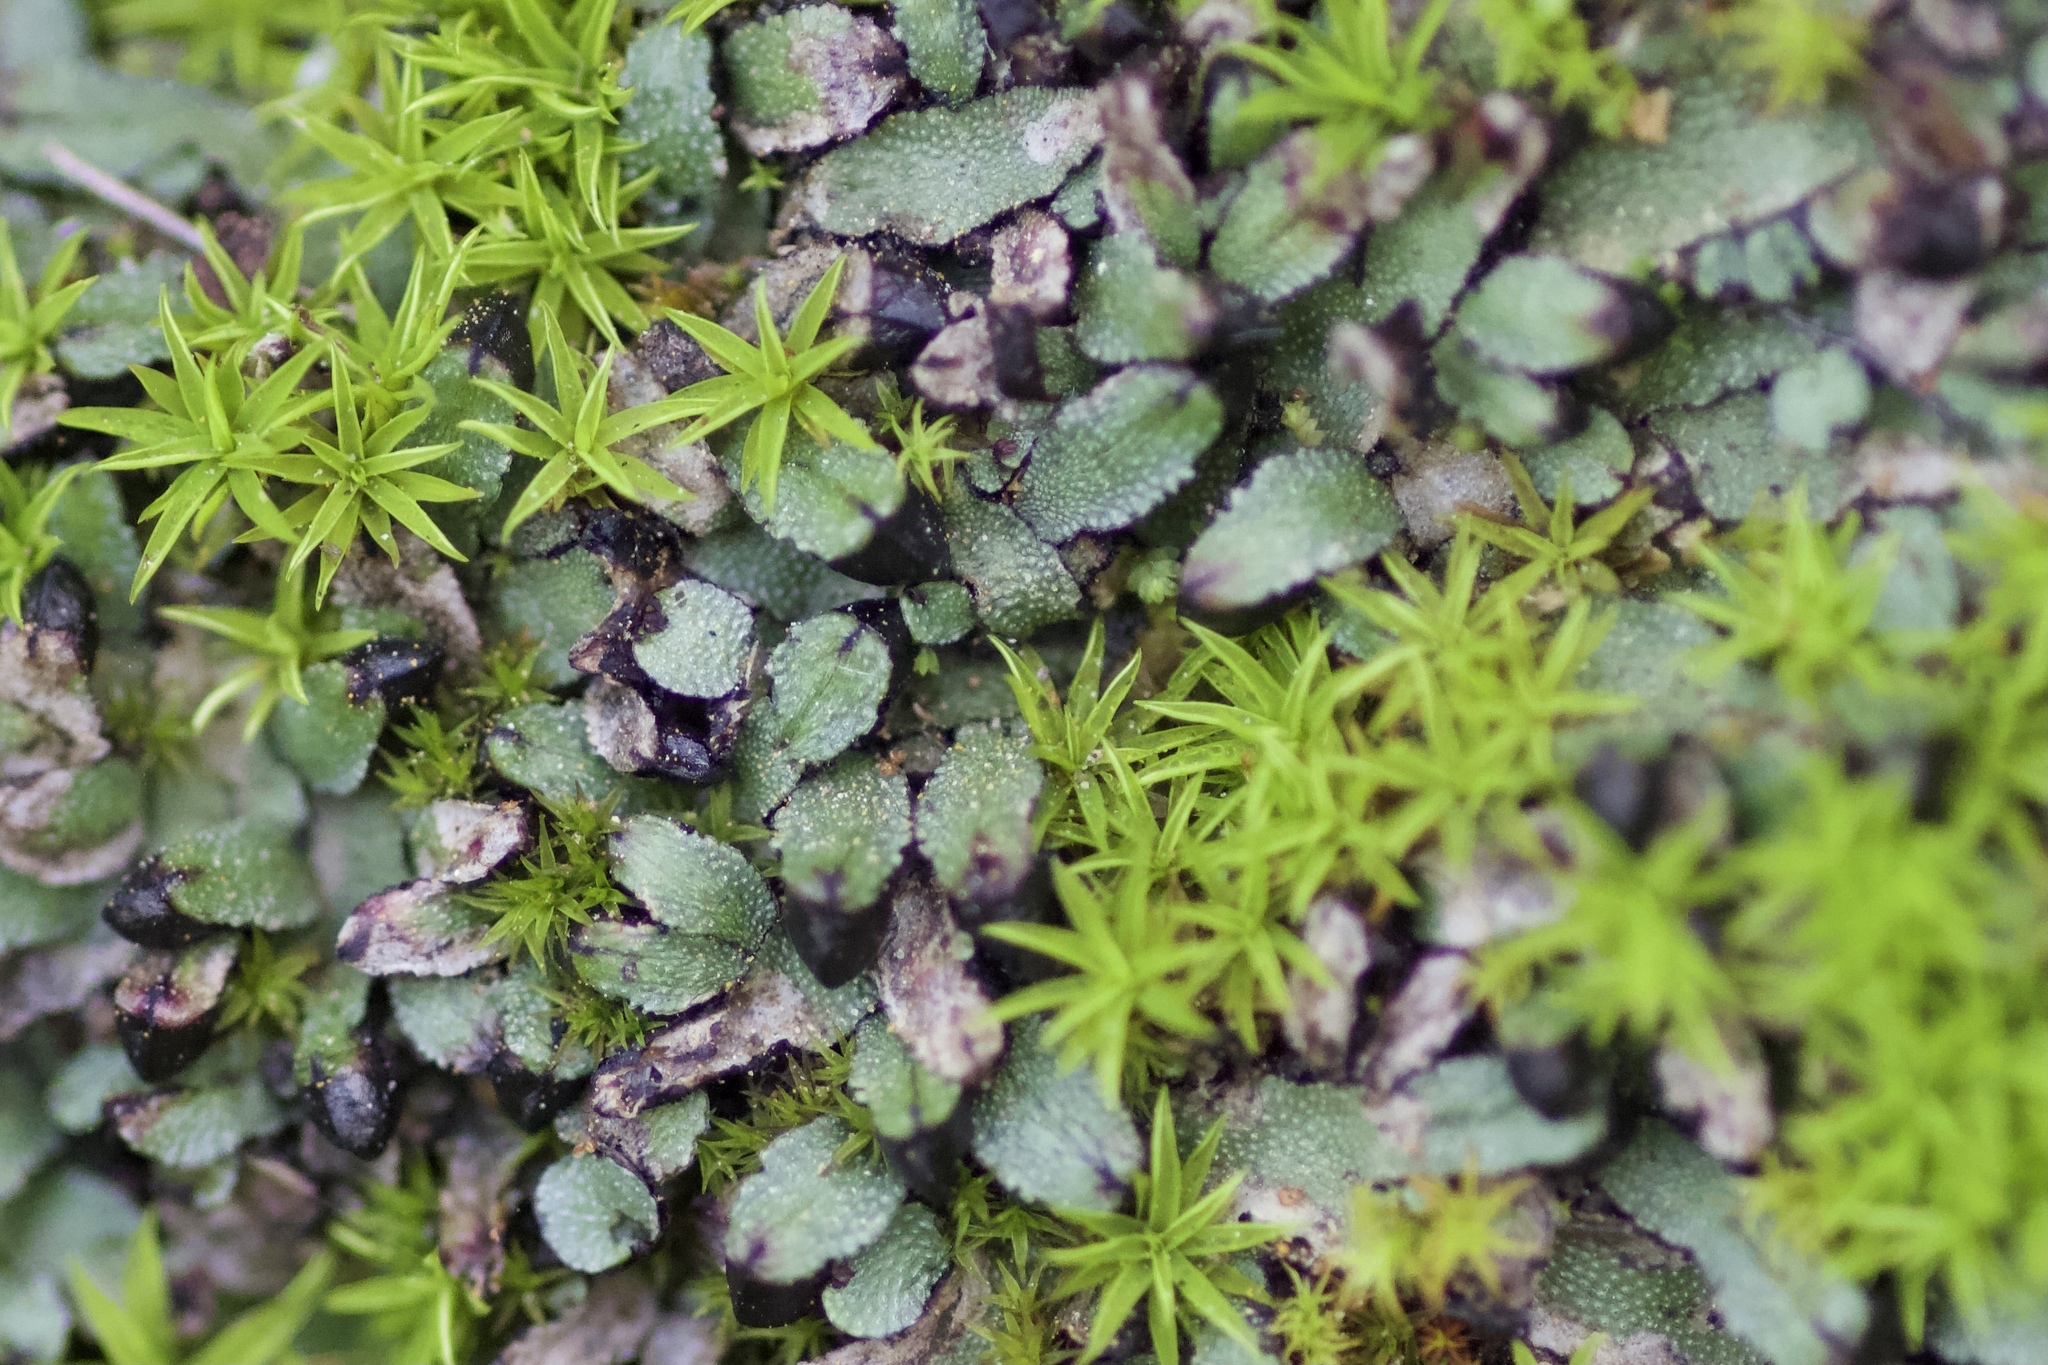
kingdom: Plantae
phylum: Marchantiophyta
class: Marchantiopsida
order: Marchantiales
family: Targioniaceae
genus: Targionia
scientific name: Targionia hypophylla
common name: Orobus-seed liverwort
